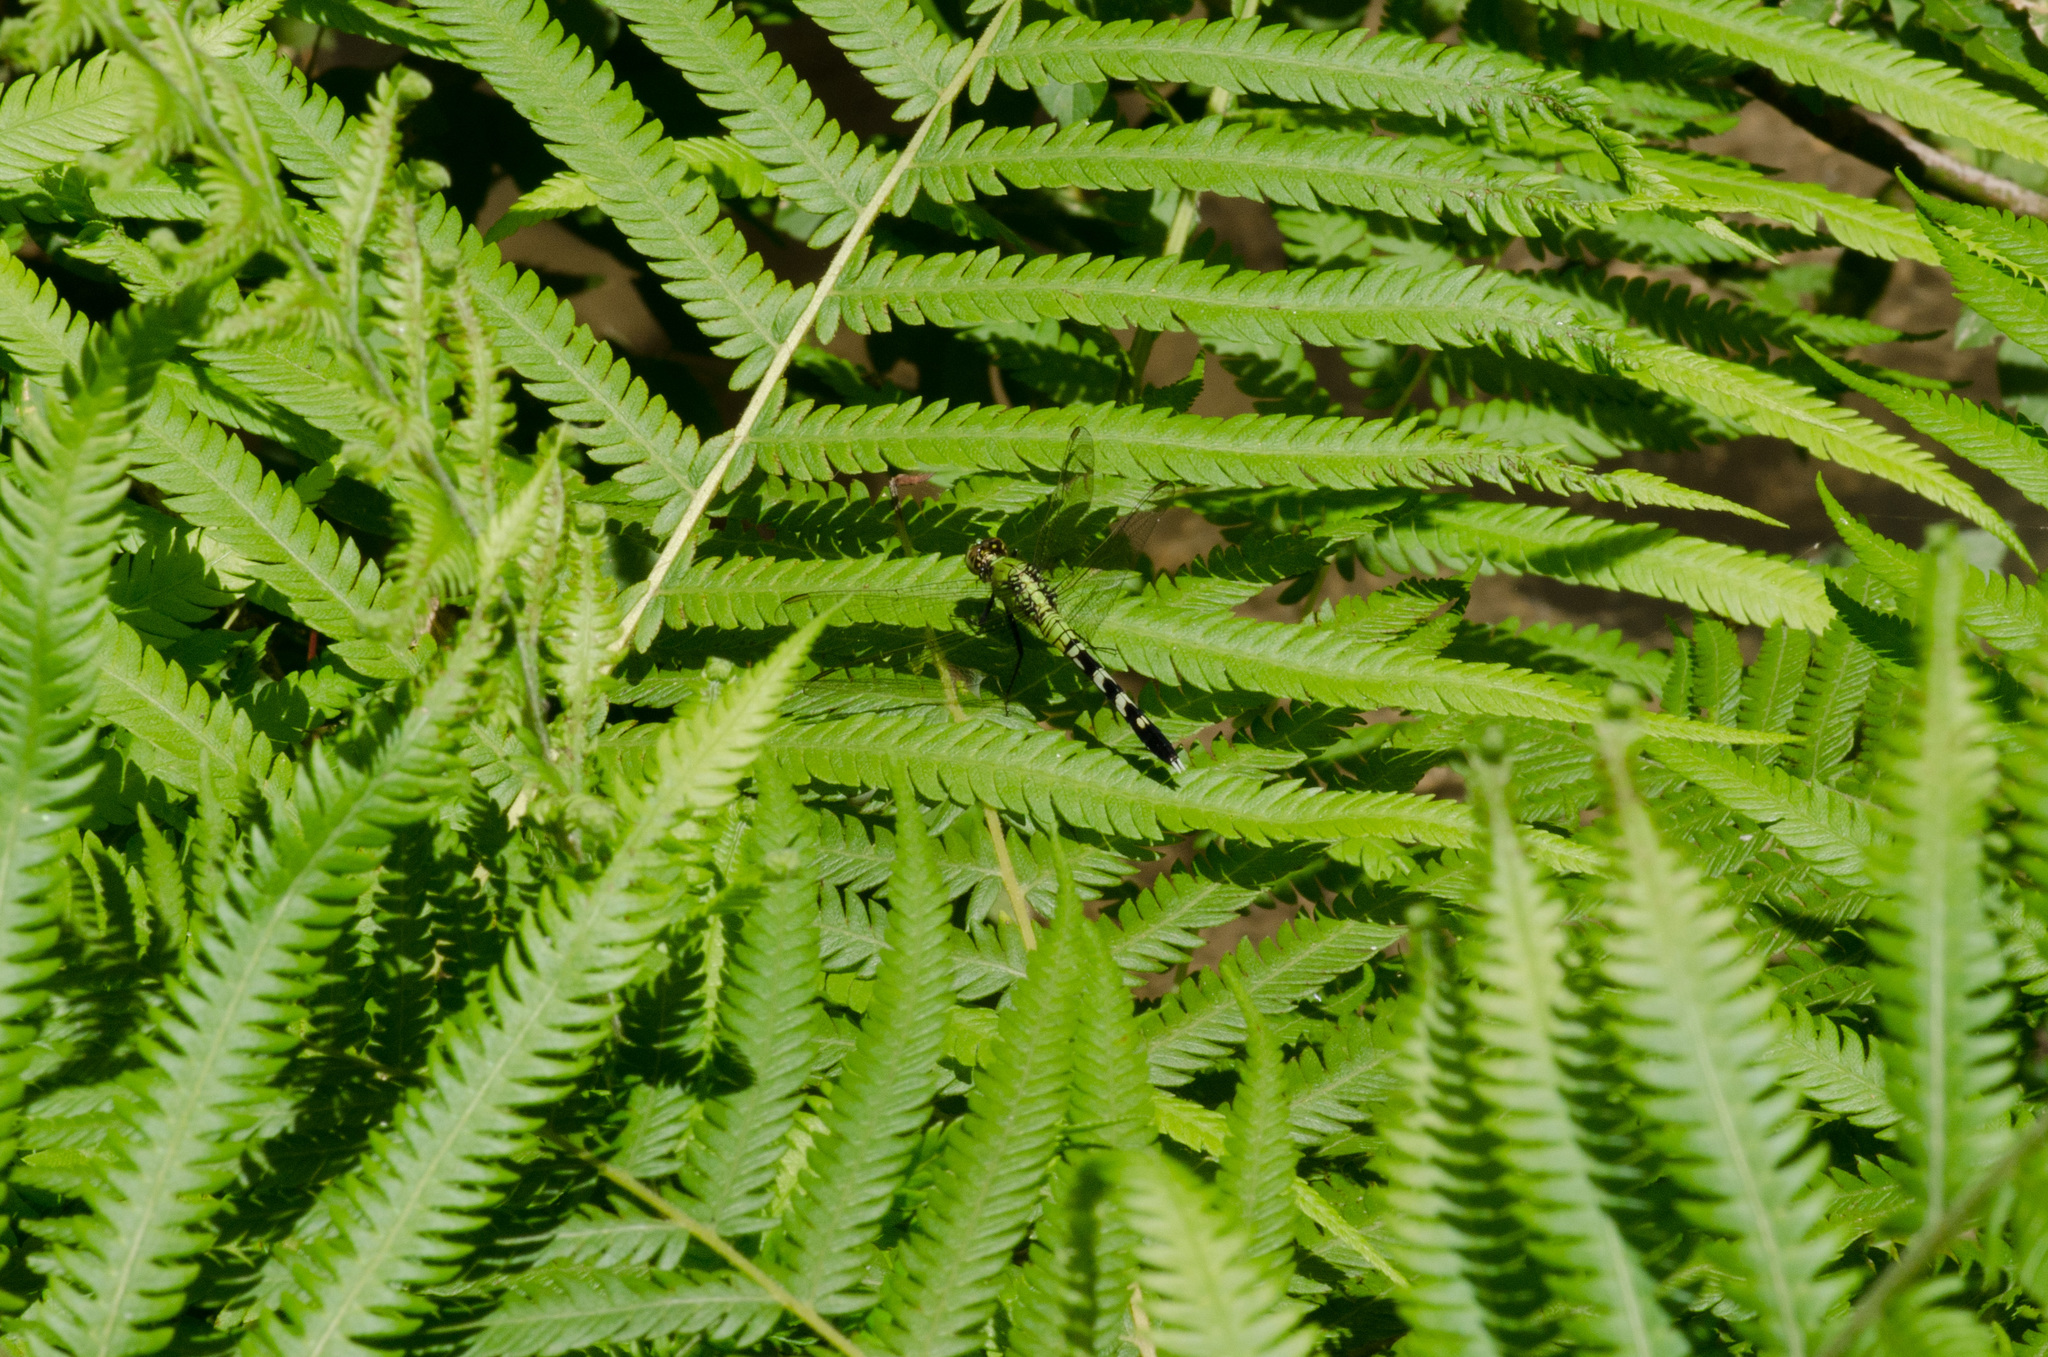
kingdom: Animalia
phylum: Arthropoda
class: Insecta
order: Odonata
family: Libellulidae
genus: Erythemis
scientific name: Erythemis simplicicollis
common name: Eastern pondhawk
